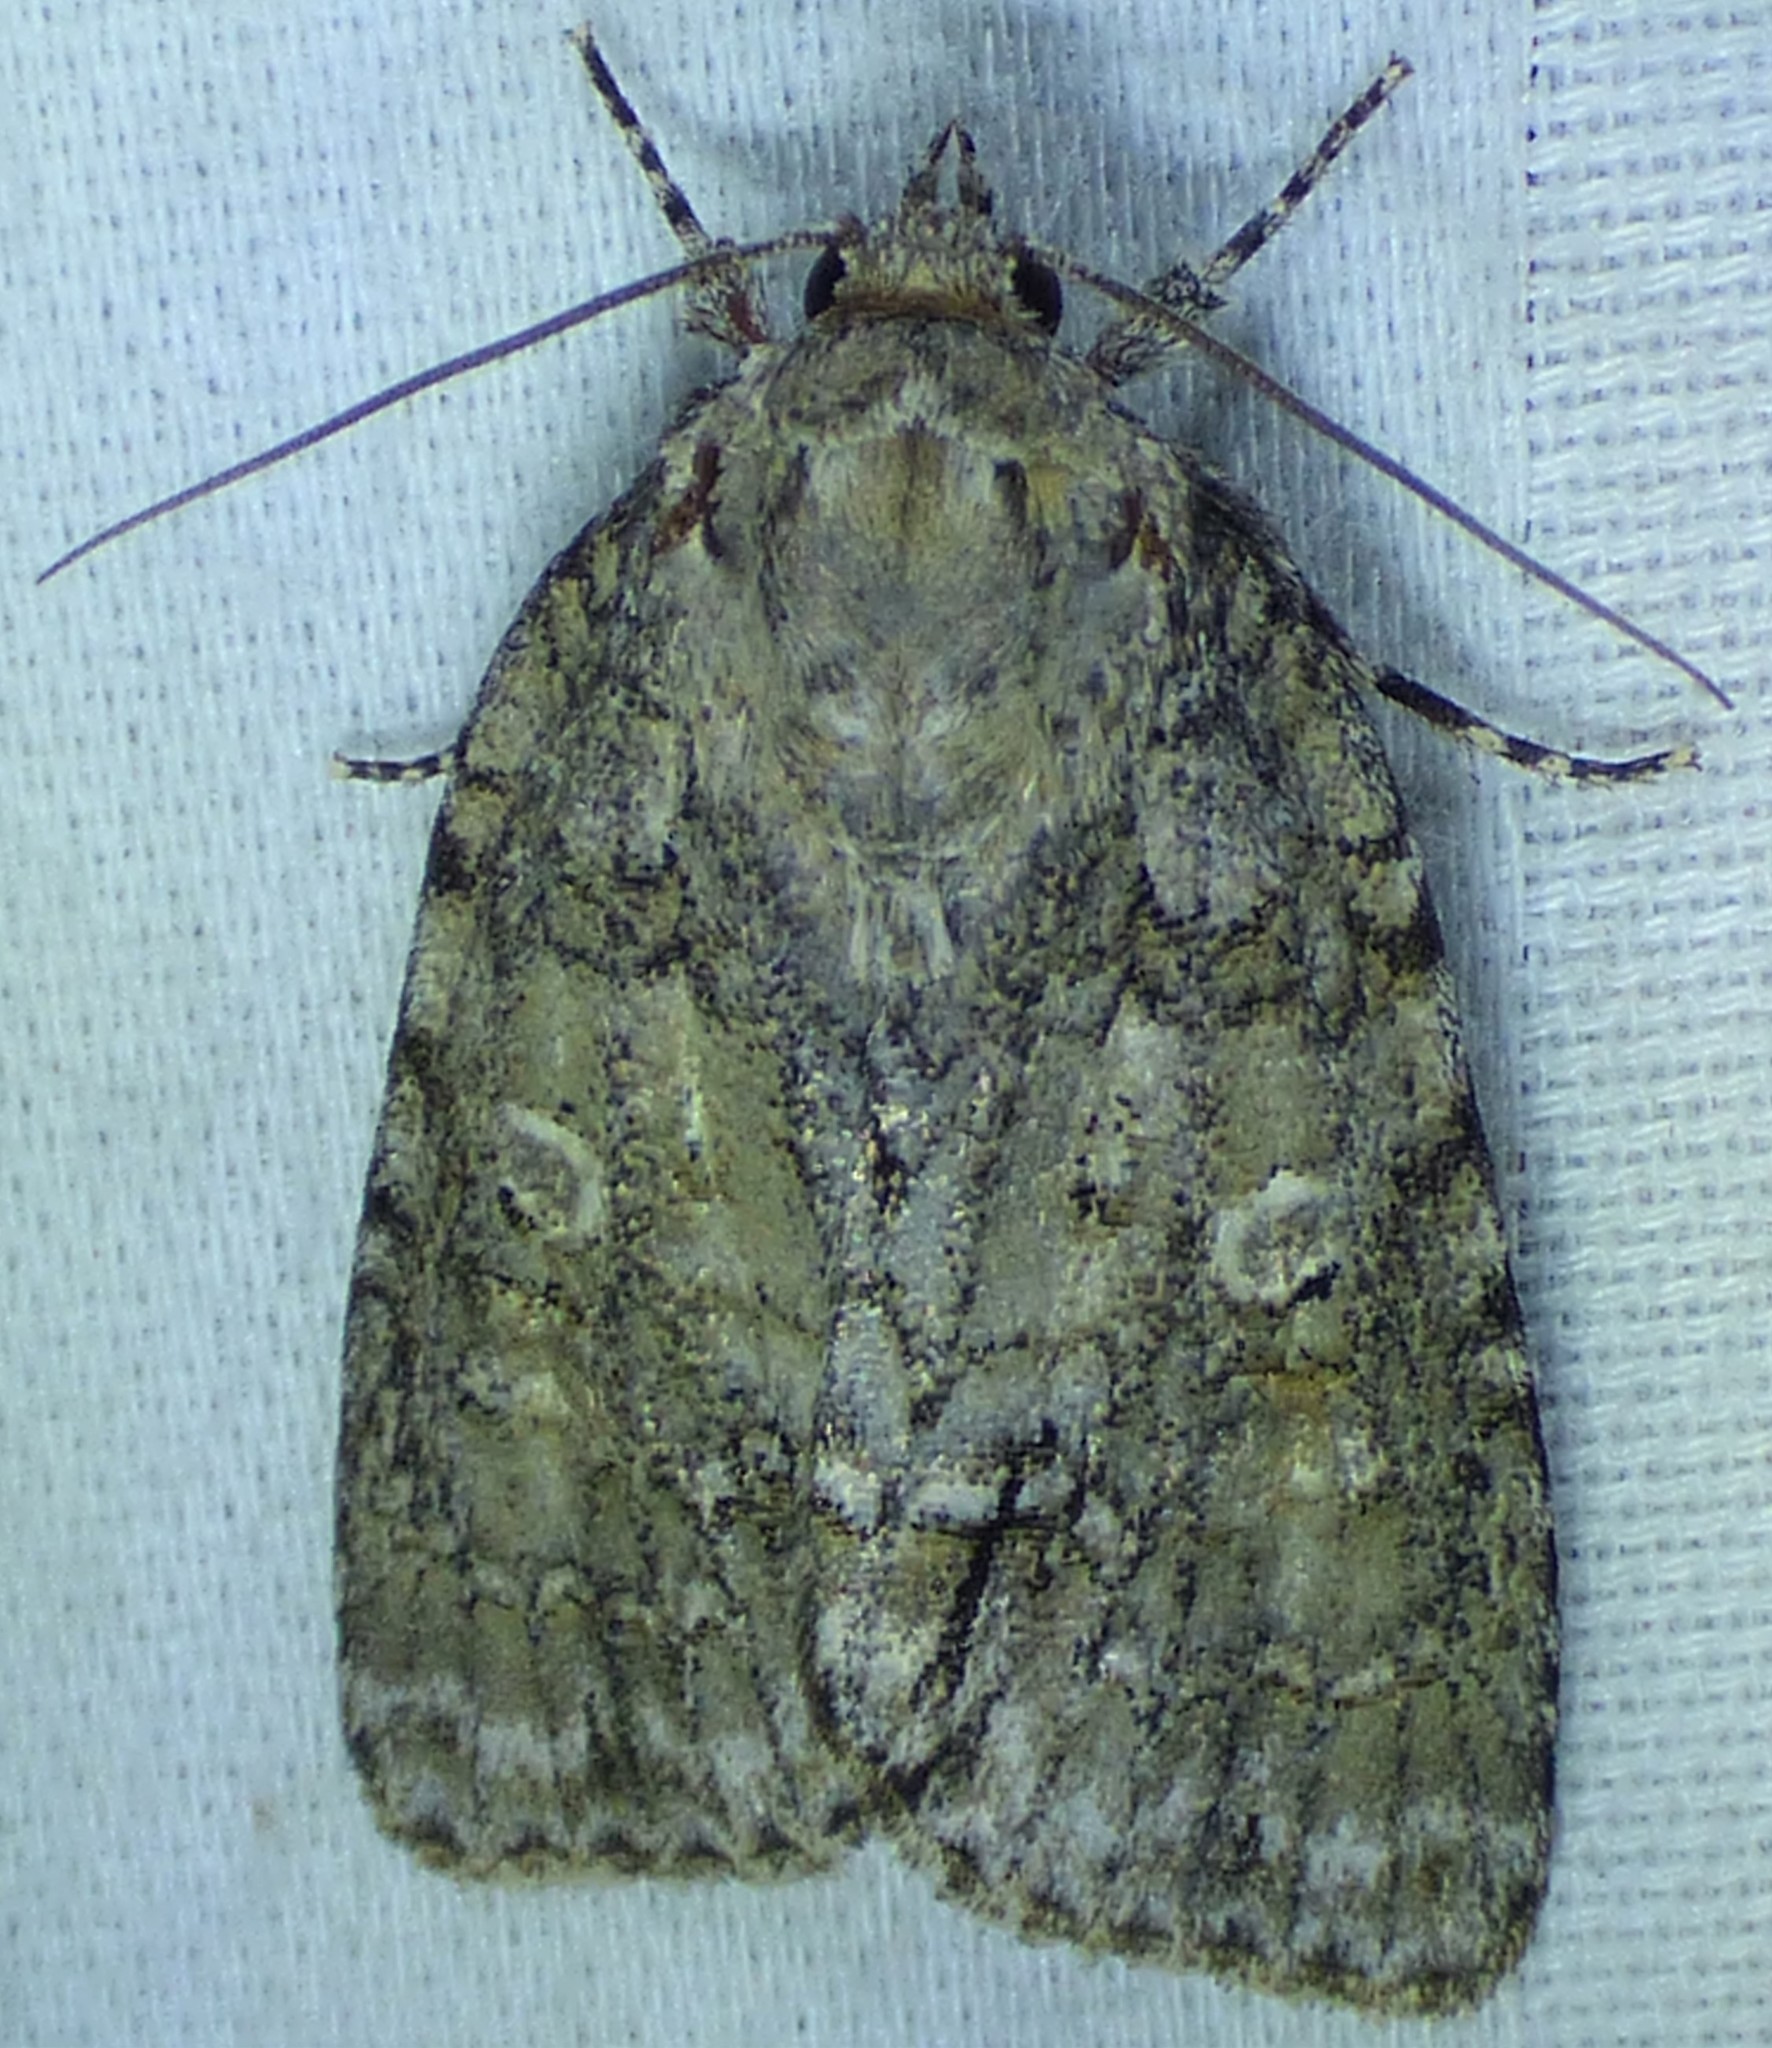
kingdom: Animalia
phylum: Arthropoda
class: Insecta
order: Lepidoptera
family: Noctuidae
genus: Acronicta
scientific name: Acronicta retardata
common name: Maple dagger
